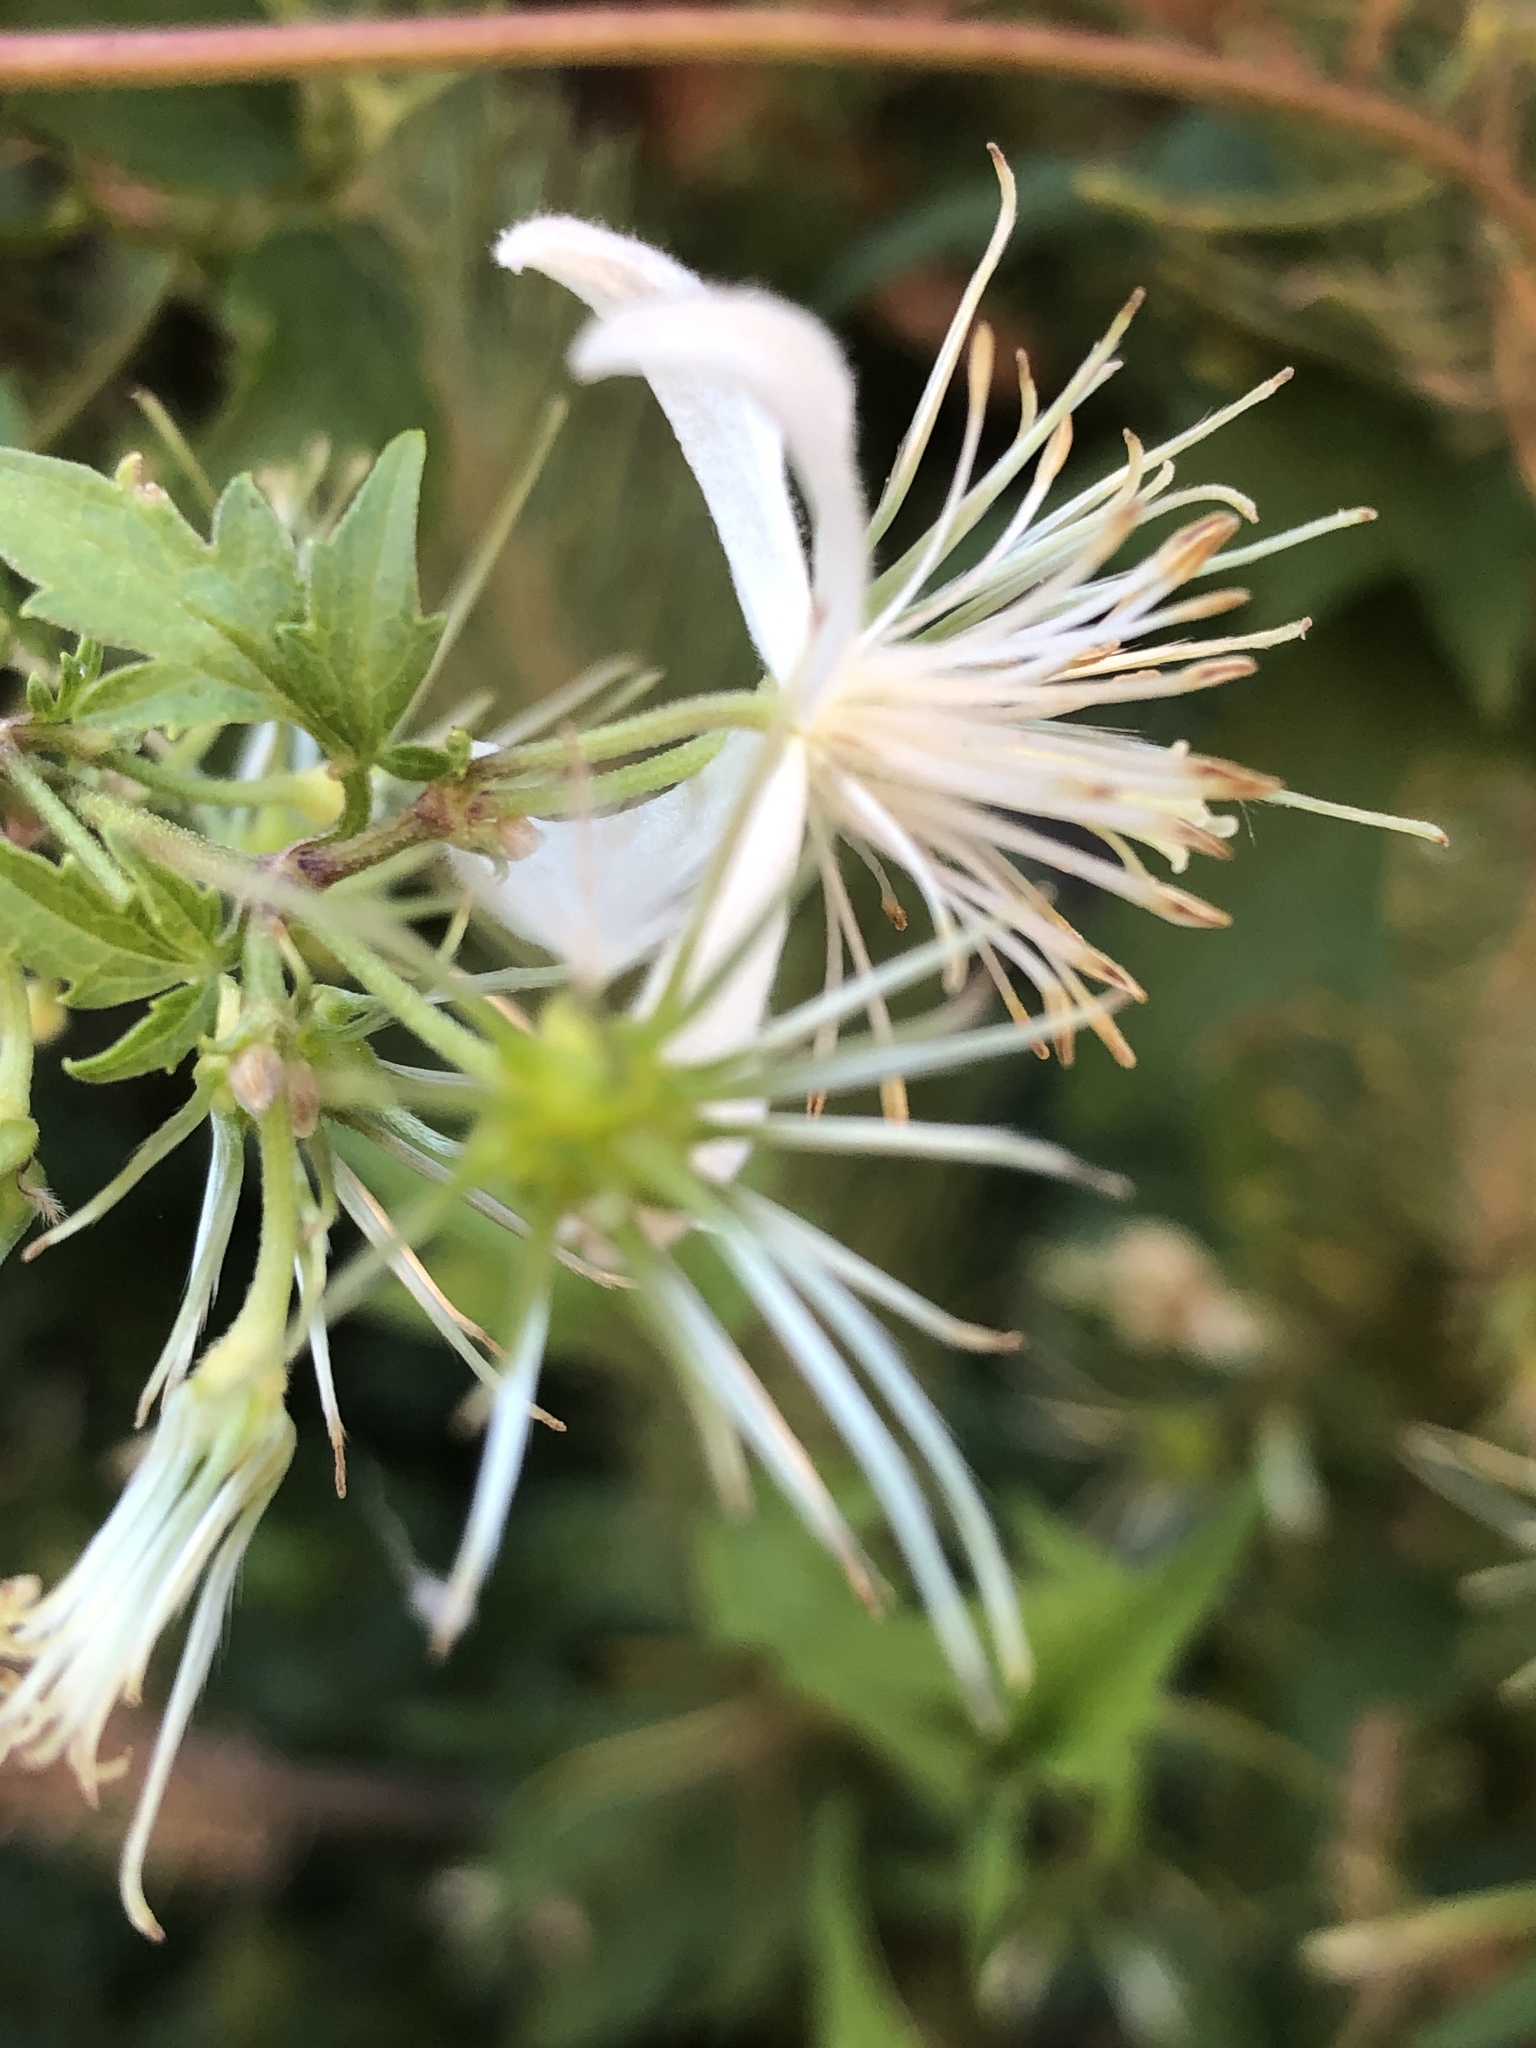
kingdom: Plantae
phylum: Tracheophyta
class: Magnoliopsida
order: Ranunculales
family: Ranunculaceae
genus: Clematis
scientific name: Clematis brachiata
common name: Traveler's-joy
